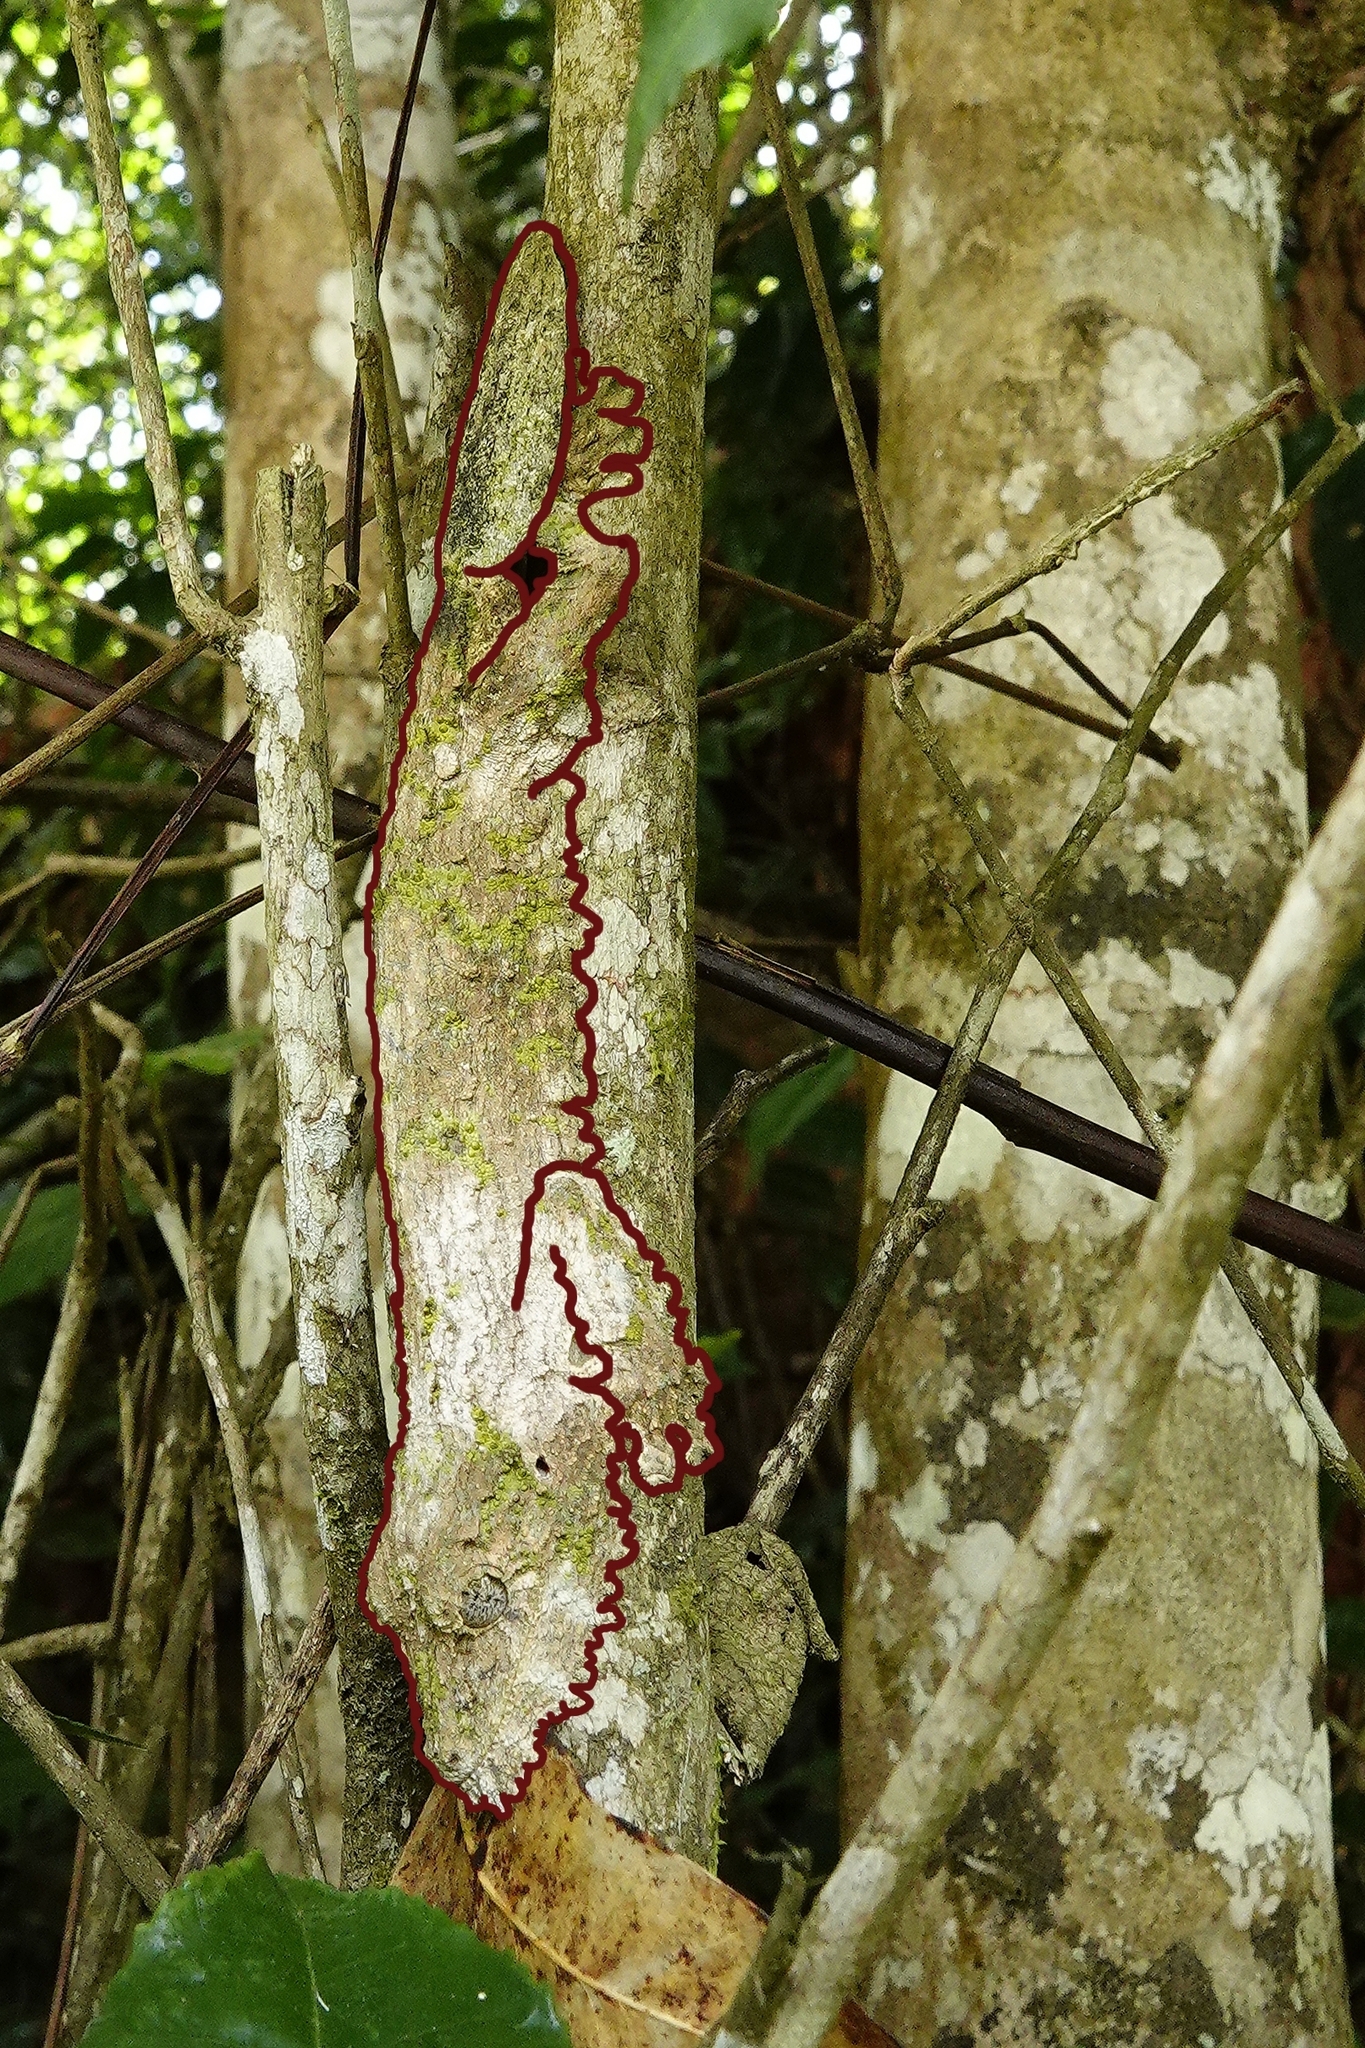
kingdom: Animalia
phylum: Chordata
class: Squamata
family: Gekkonidae
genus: Uroplatus
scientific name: Uroplatus sikorae
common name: Southern flat-tail gecko
